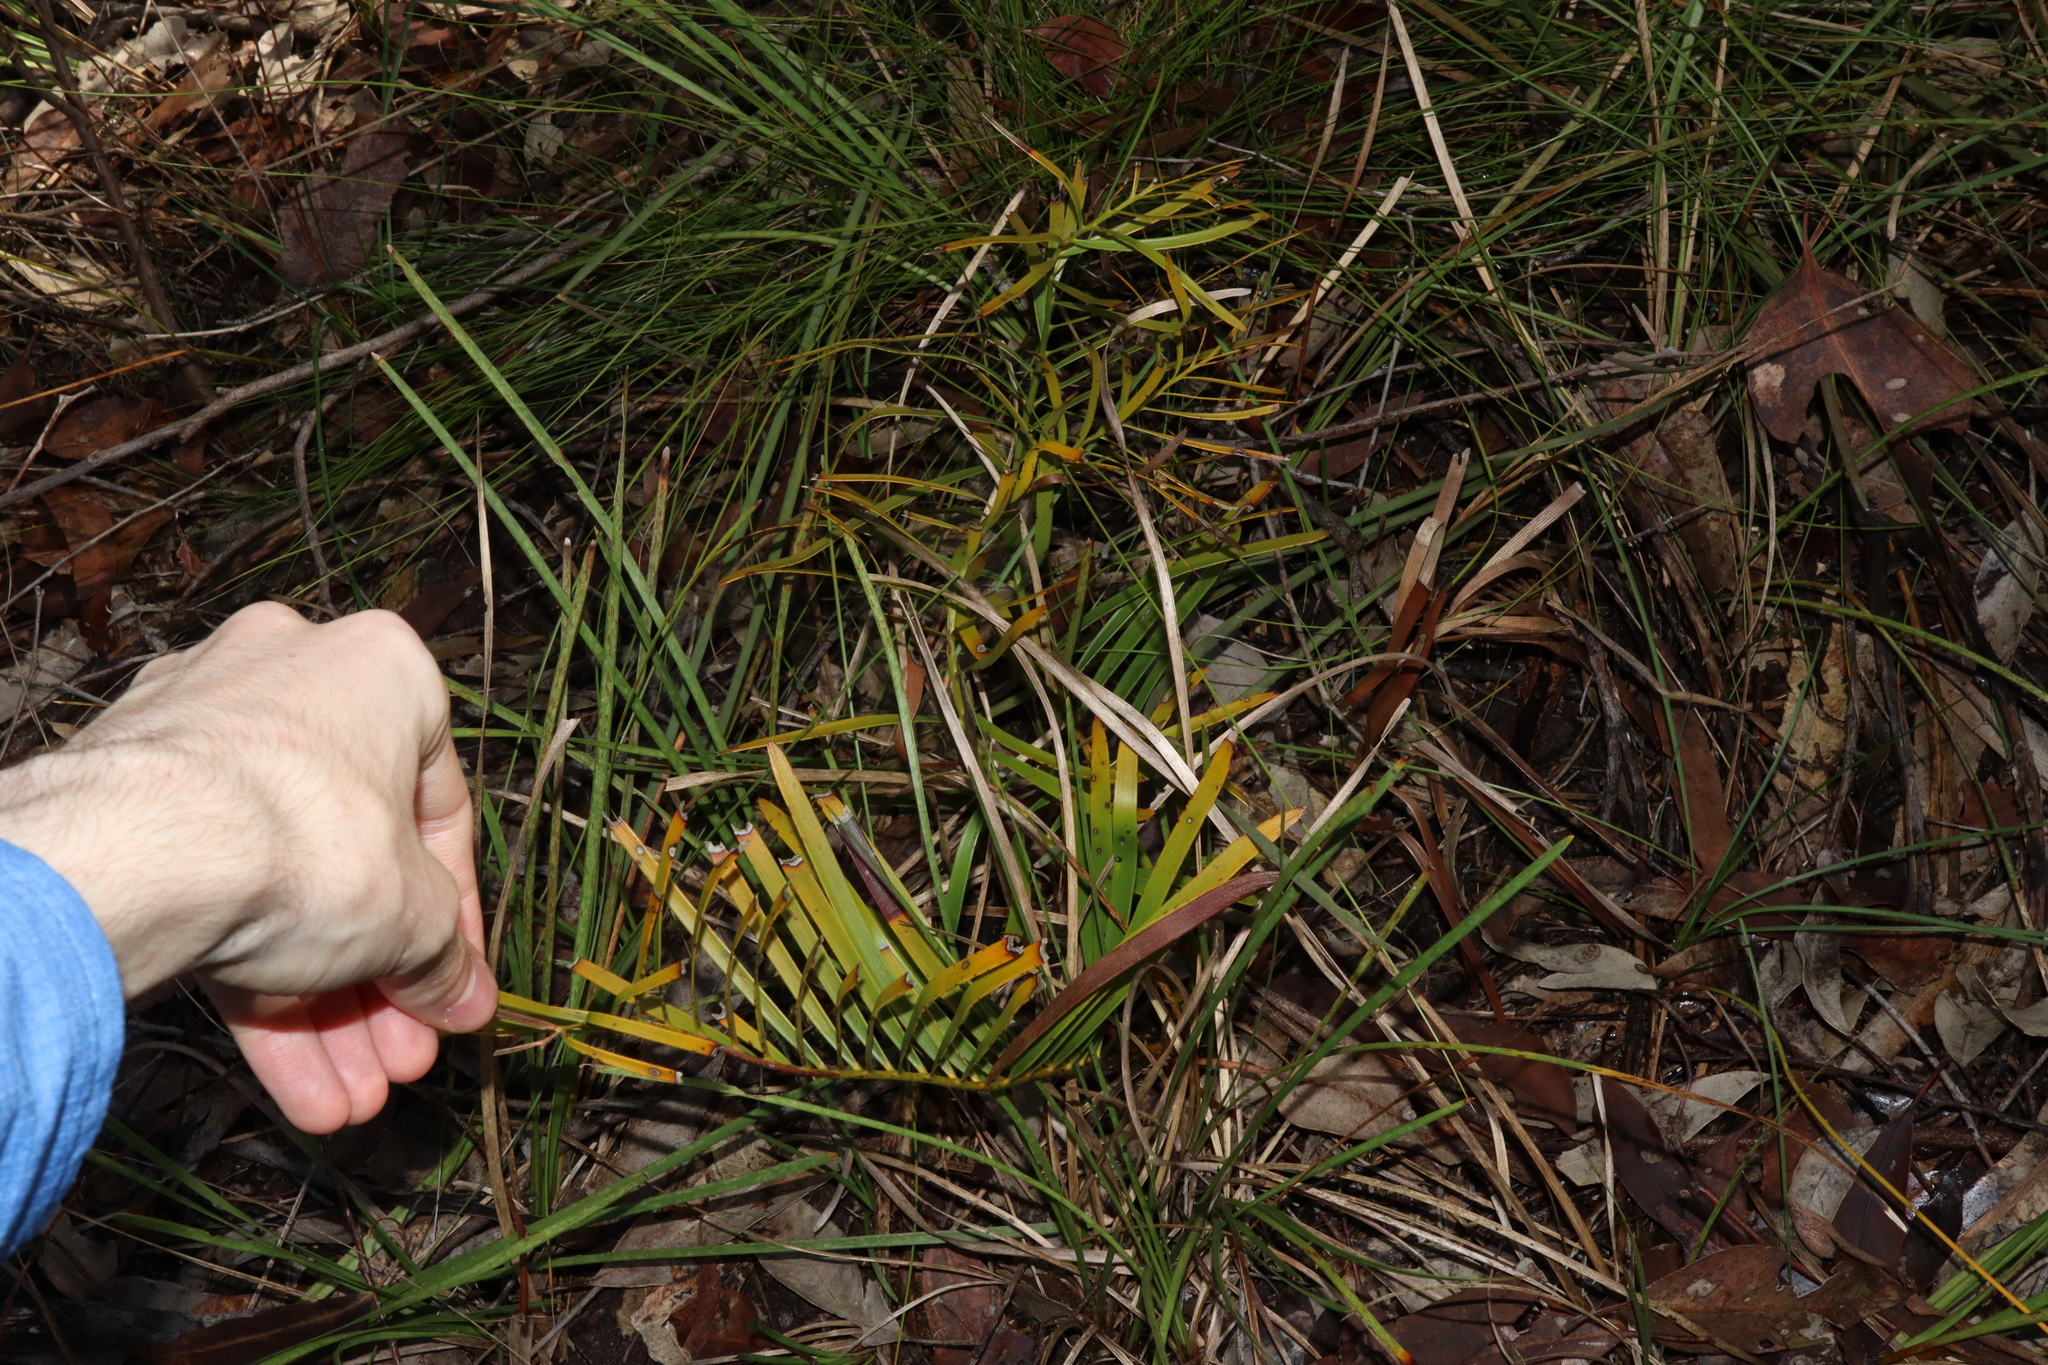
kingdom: Plantae
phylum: Tracheophyta
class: Cycadopsida
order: Cycadales
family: Zamiaceae
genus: Macrozamia
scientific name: Macrozamia spiralis
